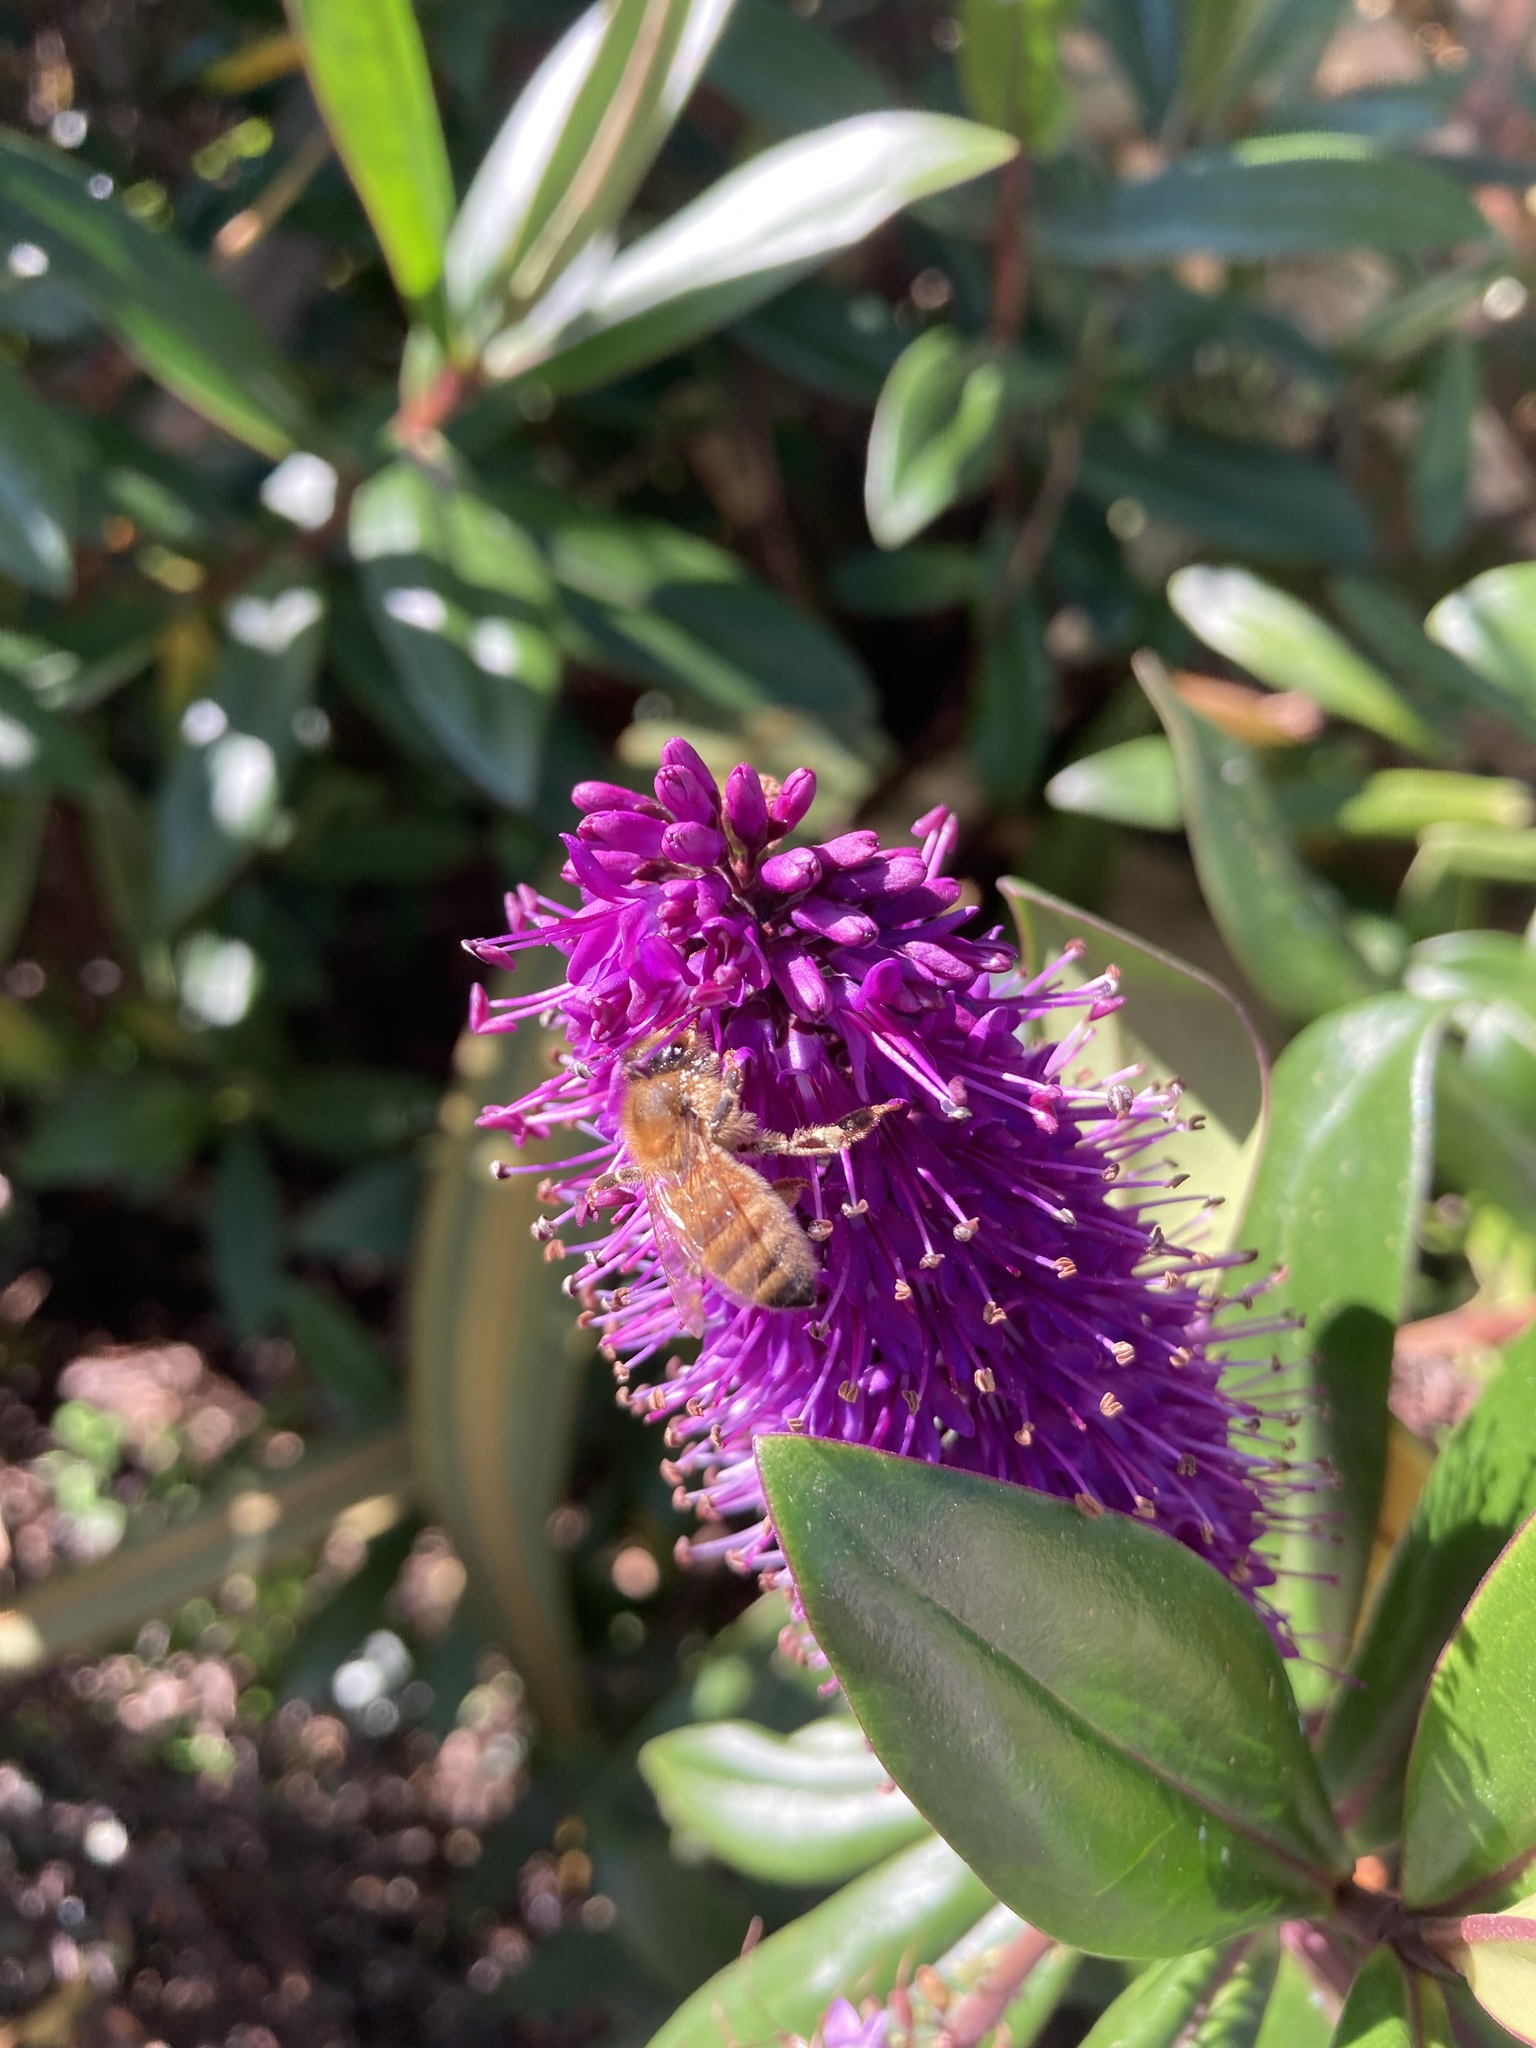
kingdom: Animalia
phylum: Arthropoda
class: Insecta
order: Hymenoptera
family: Apidae
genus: Apis
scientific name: Apis mellifera
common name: Honey bee
